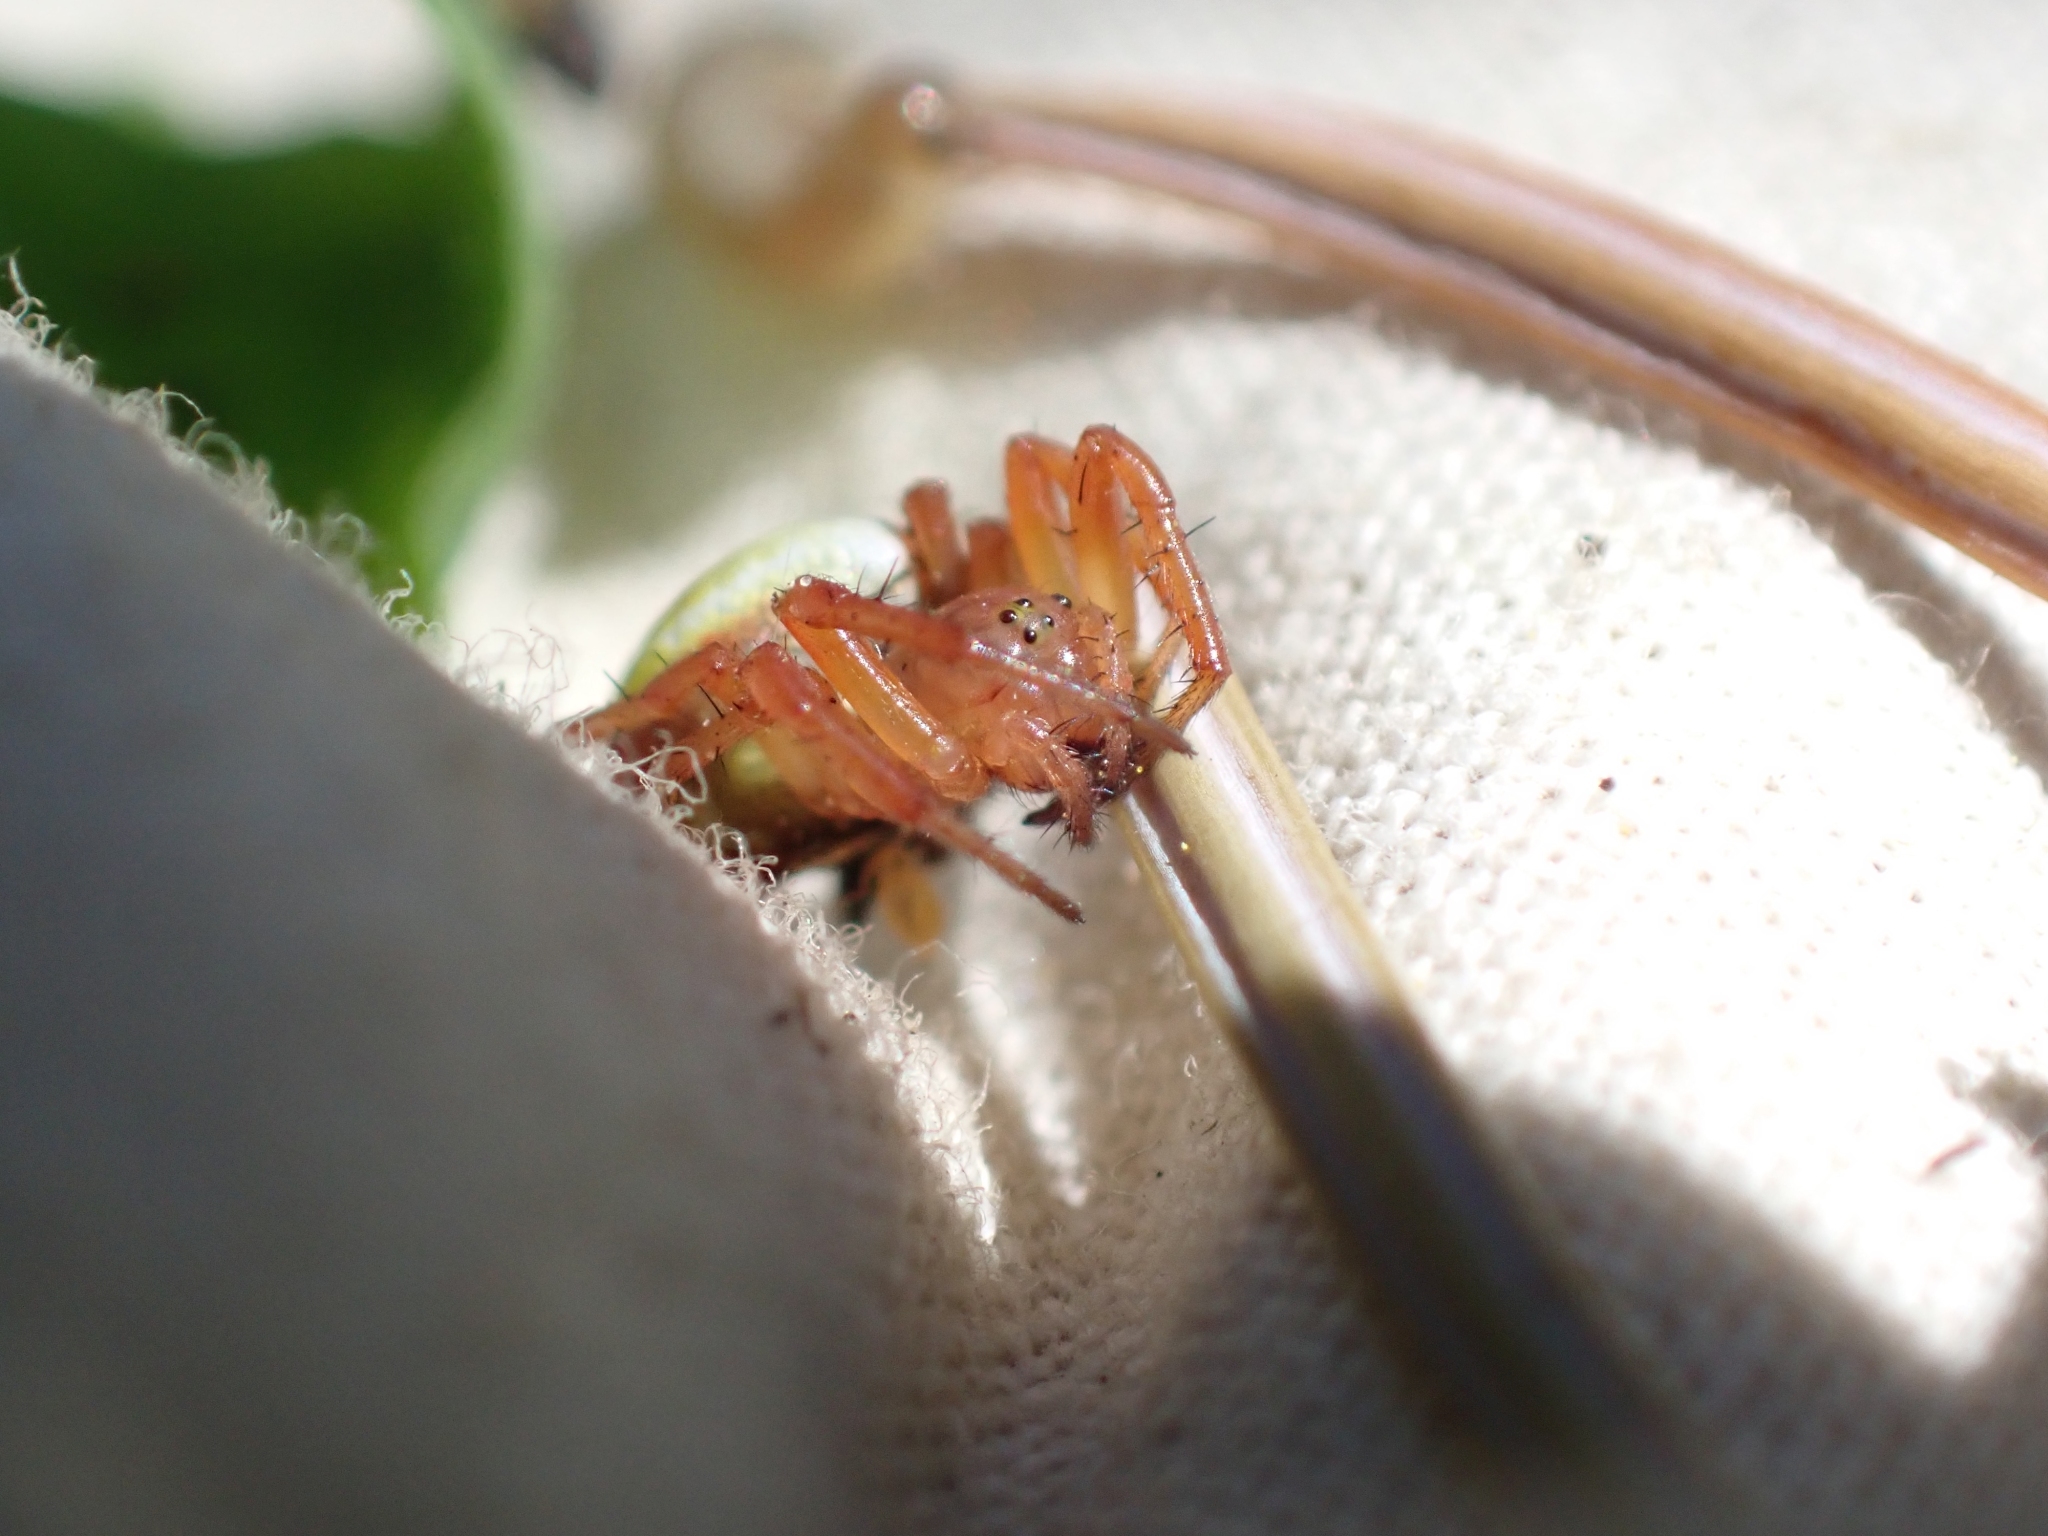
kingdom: Animalia
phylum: Arthropoda
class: Arachnida
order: Araneae
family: Araneidae
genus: Araniella
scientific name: Araniella displicata
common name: Sixspotted orb weaver
